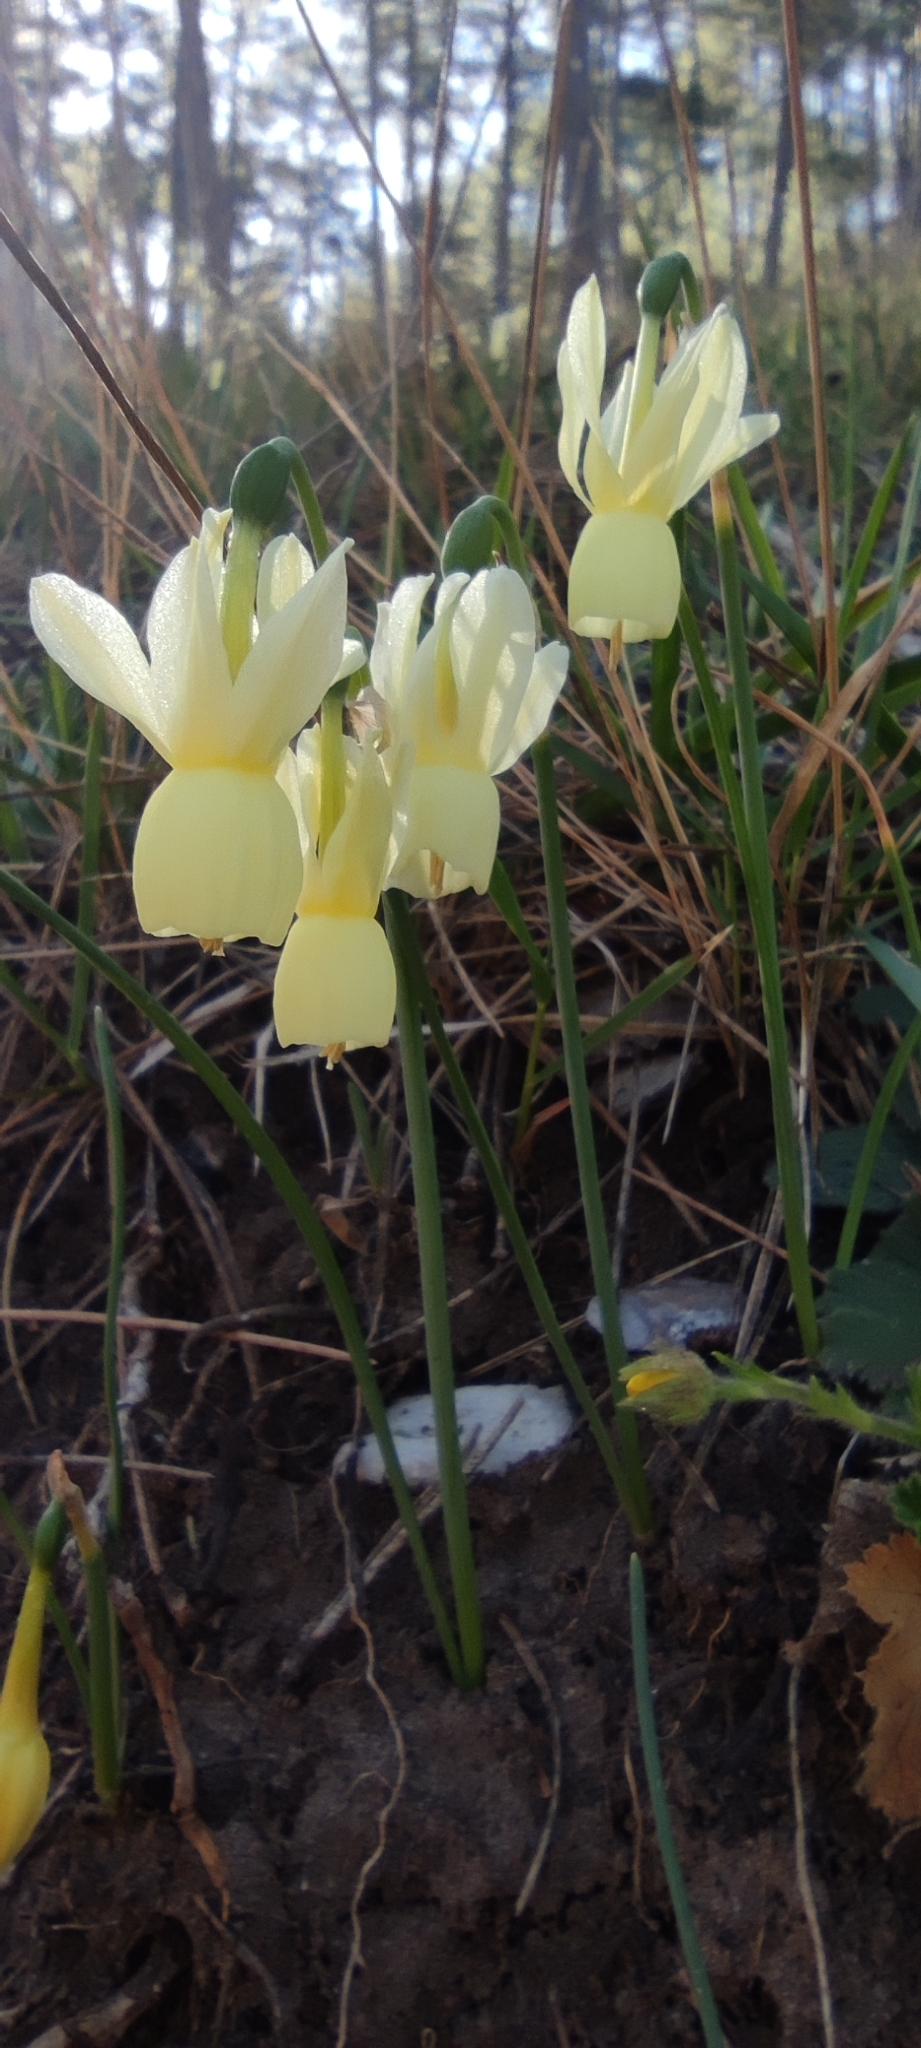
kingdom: Plantae
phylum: Tracheophyta
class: Liliopsida
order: Asparagales
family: Amaryllidaceae
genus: Narcissus
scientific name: Narcissus triandrus
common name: Angel's-tears
